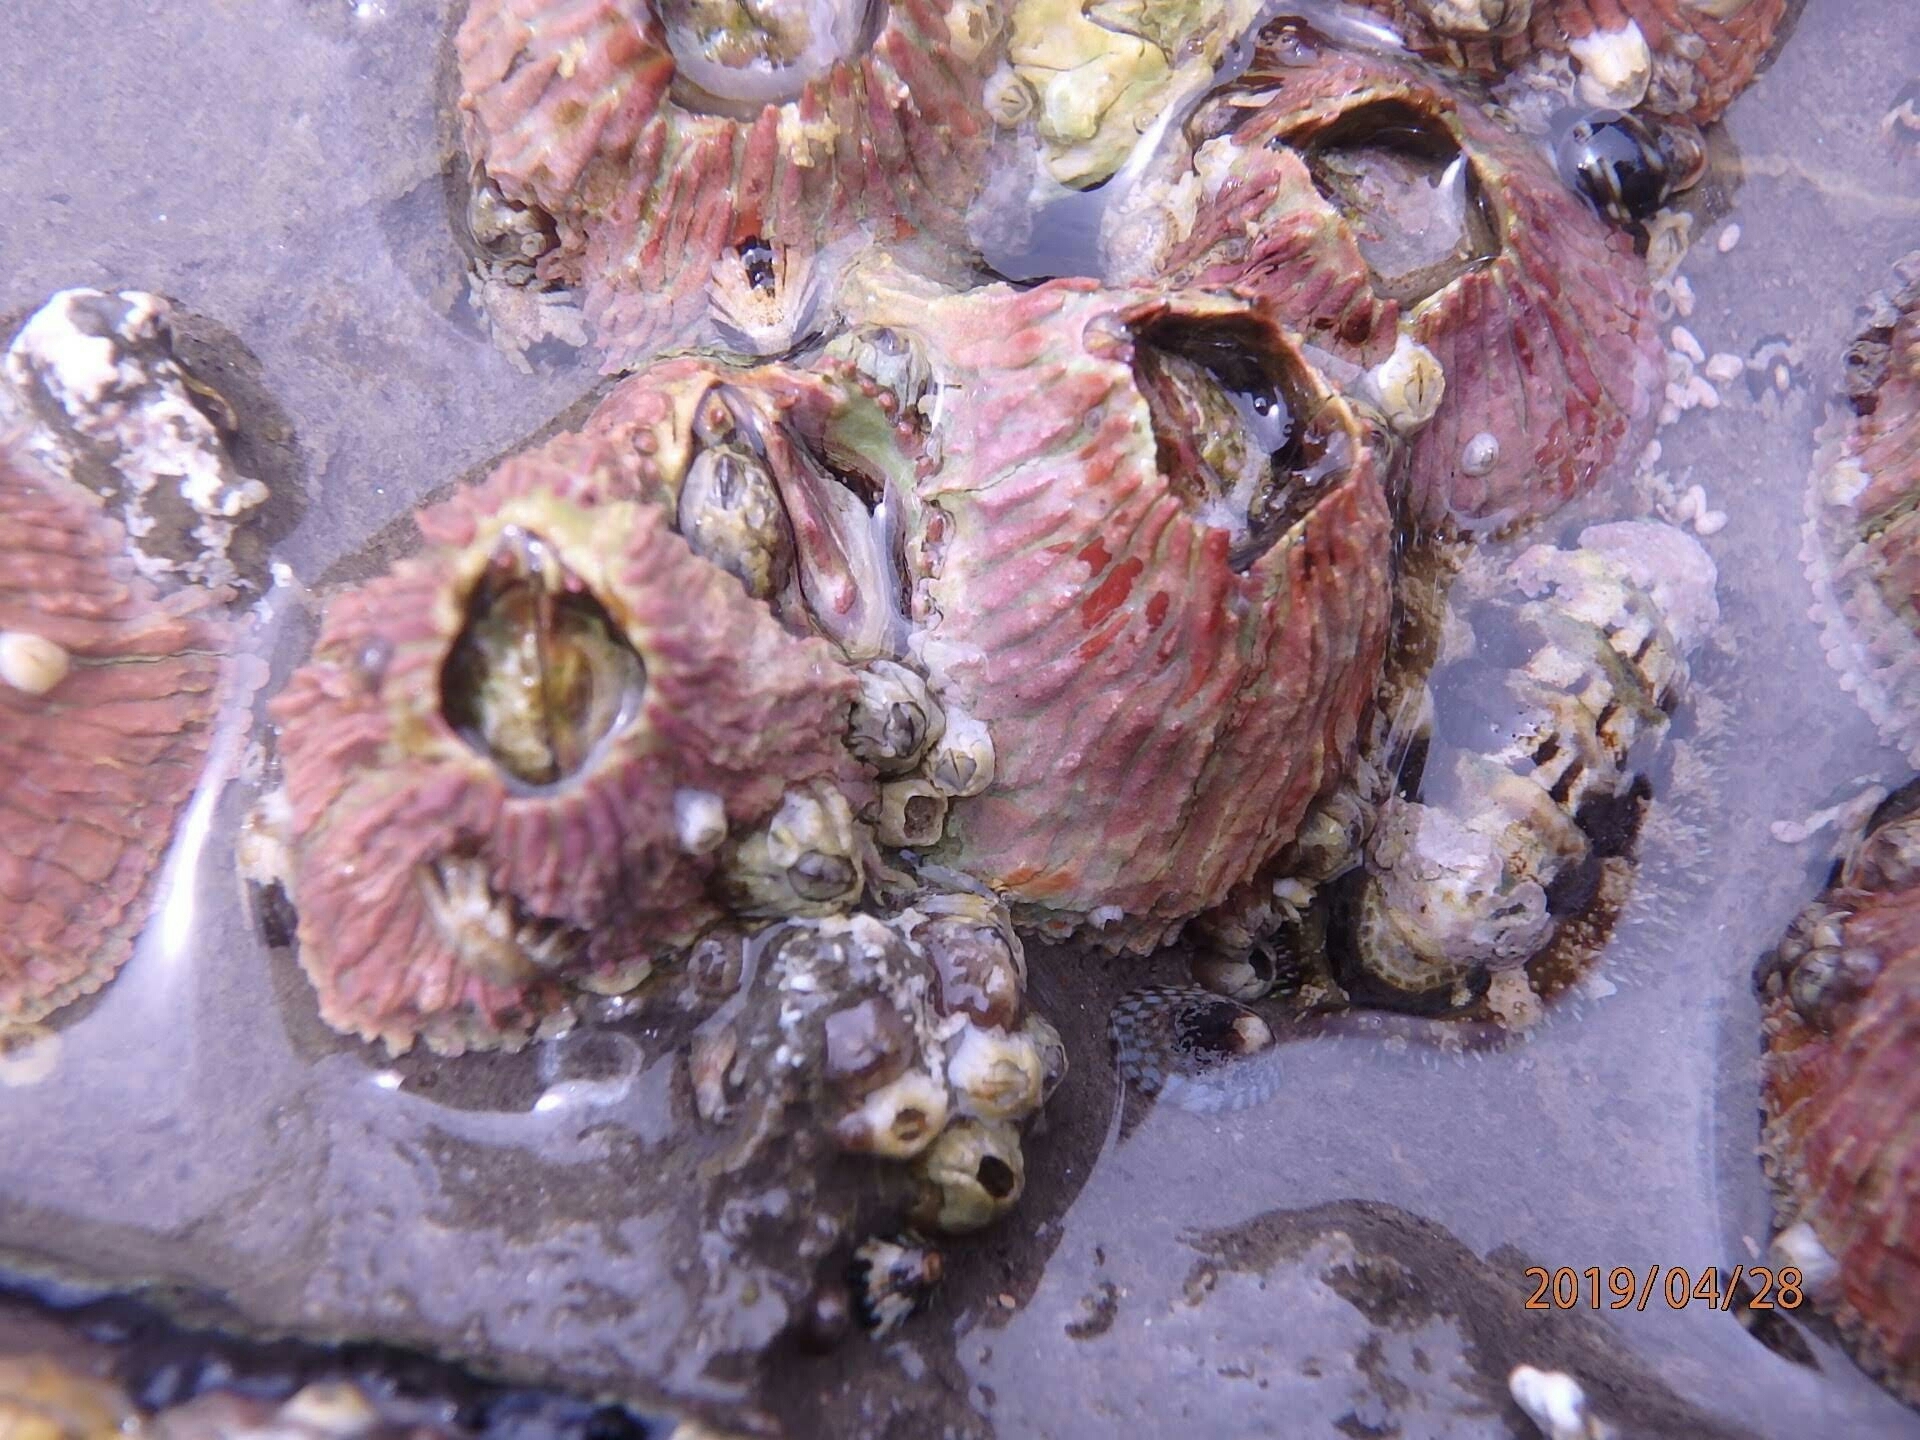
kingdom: Animalia
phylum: Arthropoda
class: Maxillopoda
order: Sessilia
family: Tetraclitidae
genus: Tetraclita
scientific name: Tetraclita rubescens
